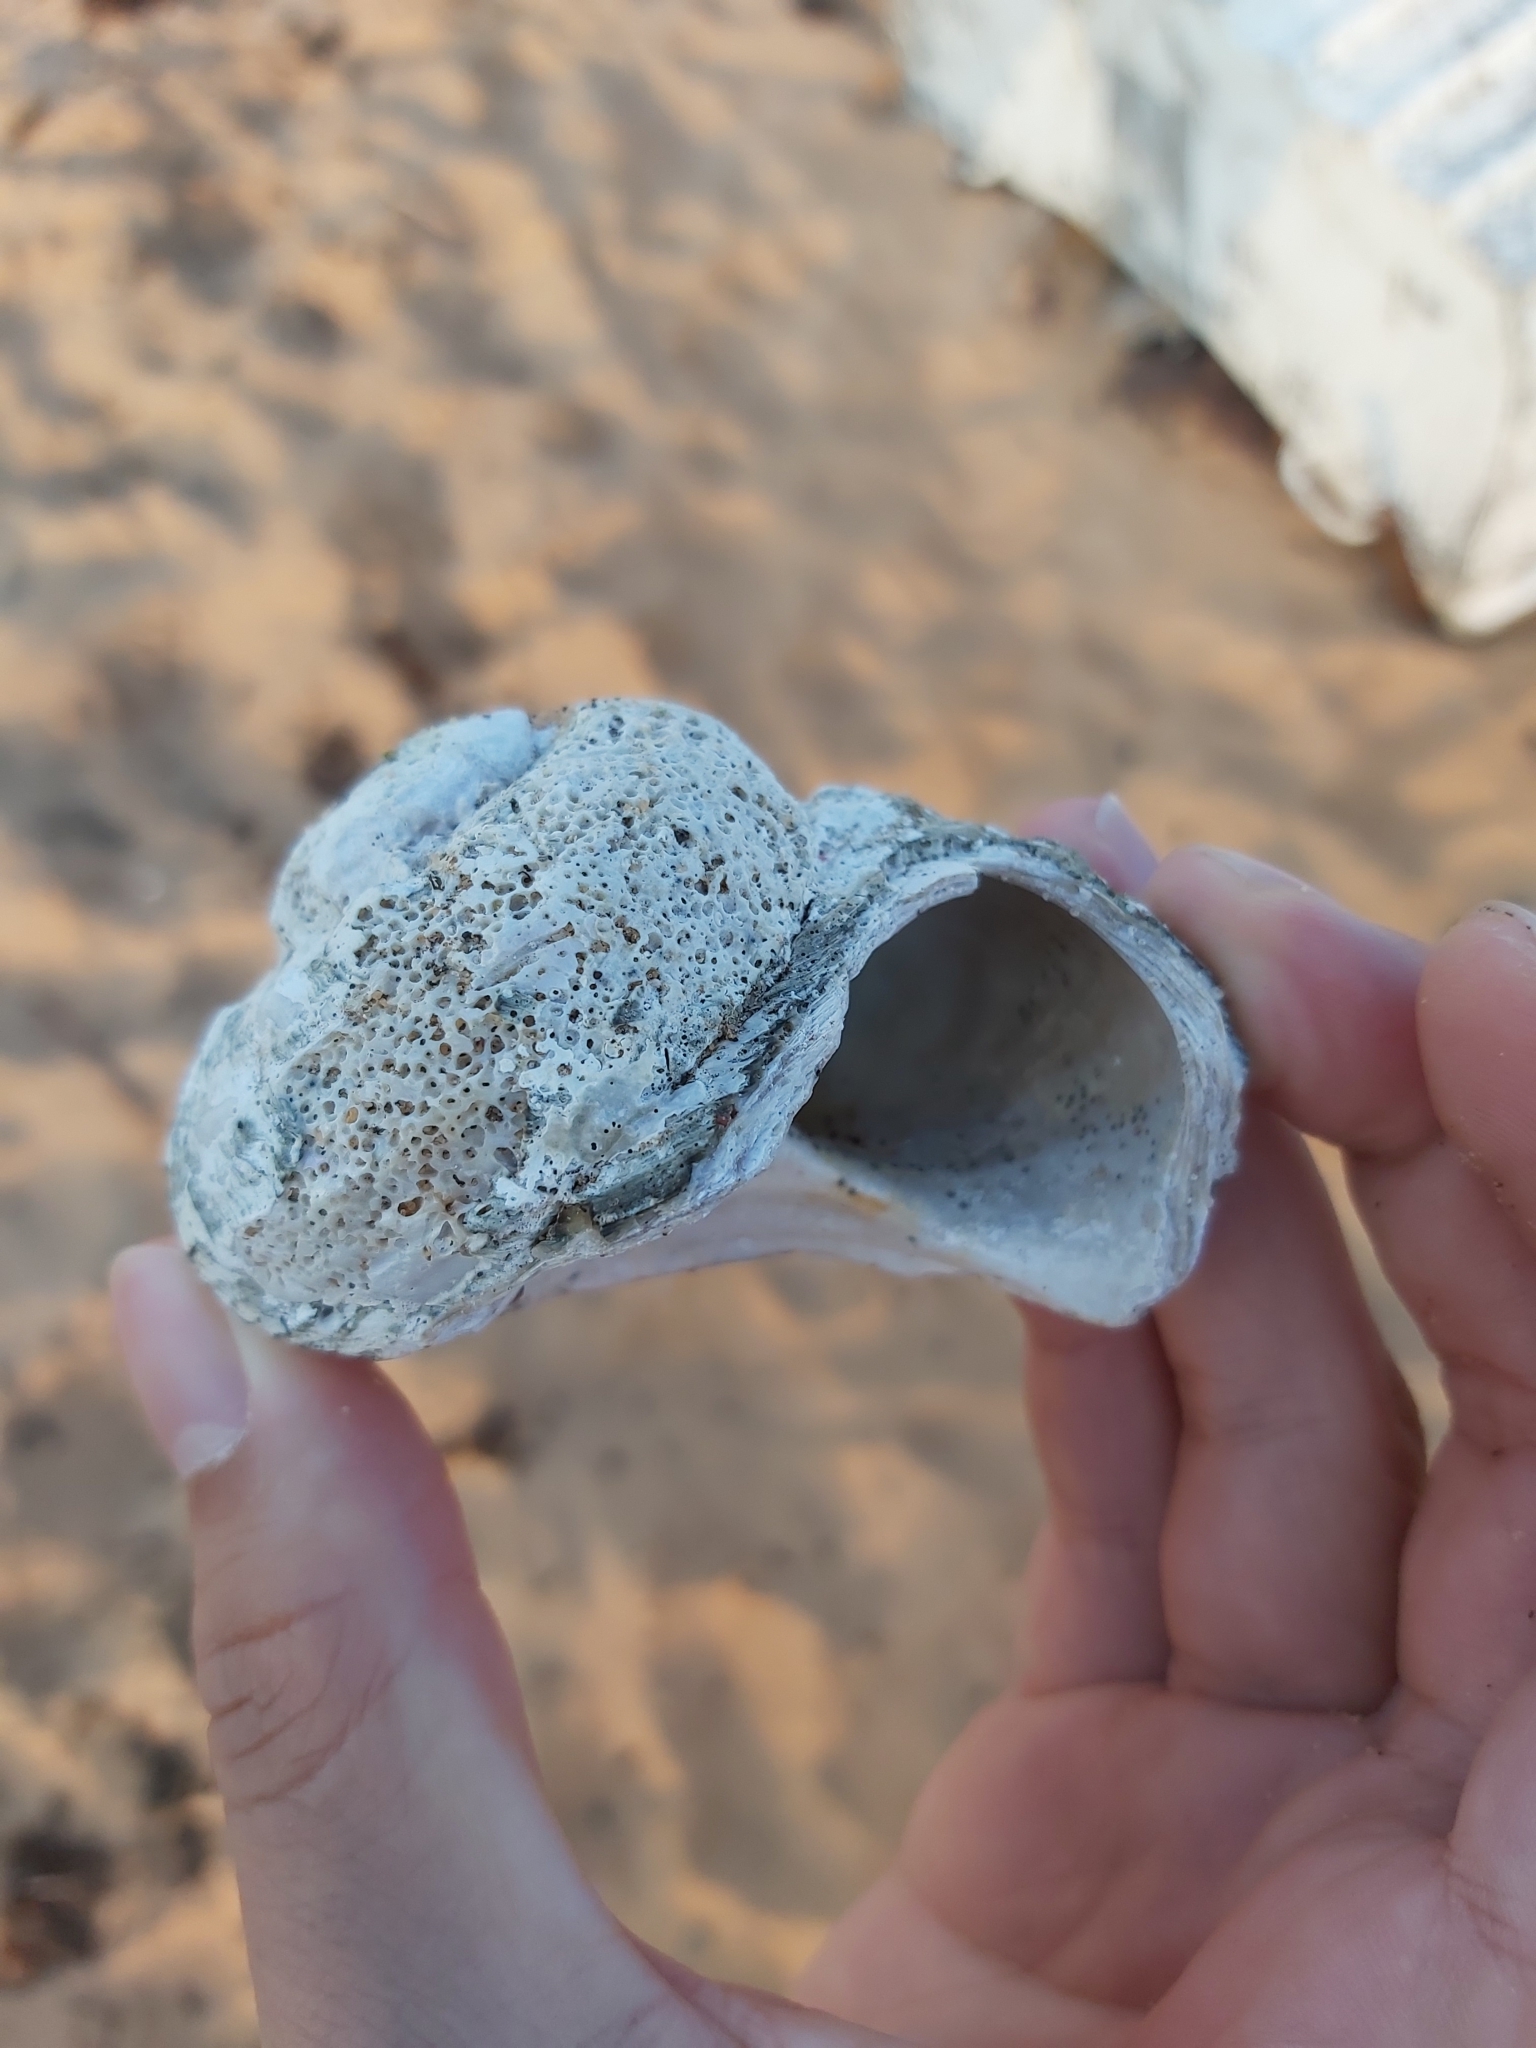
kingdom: Animalia
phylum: Mollusca
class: Gastropoda
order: Trochida
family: Turbinidae
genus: Lunella
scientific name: Lunella torquata
